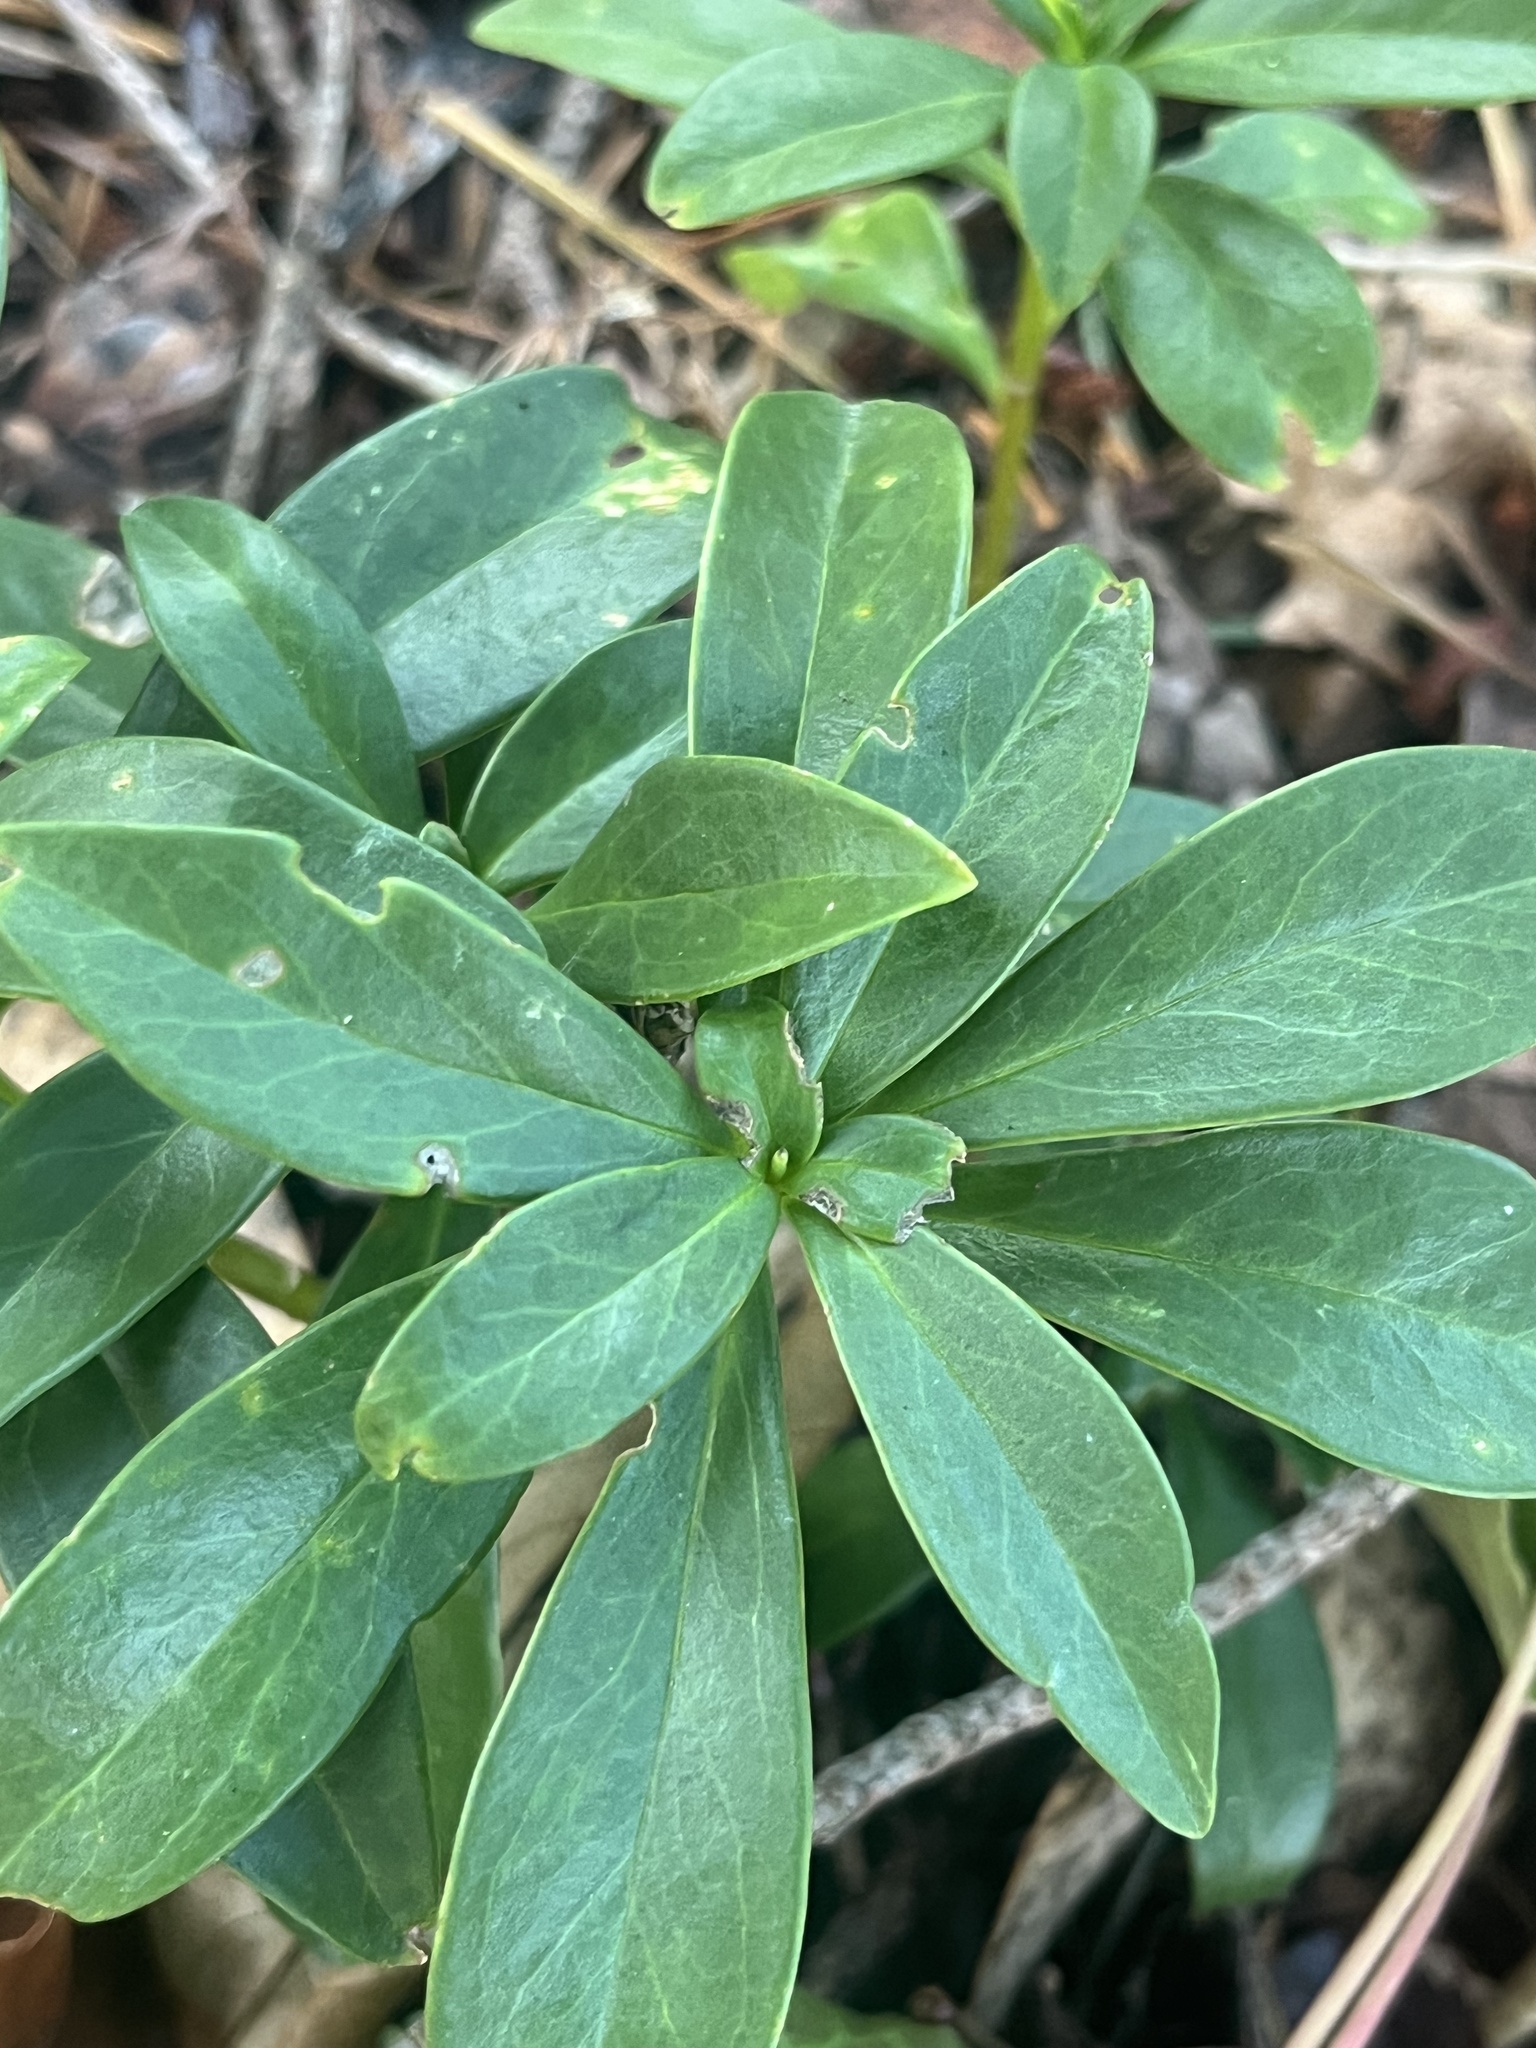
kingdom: Plantae
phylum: Tracheophyta
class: Magnoliopsida
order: Malvales
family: Thymelaeaceae
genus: Daphne
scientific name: Daphne laureola
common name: Spurge-laurel
